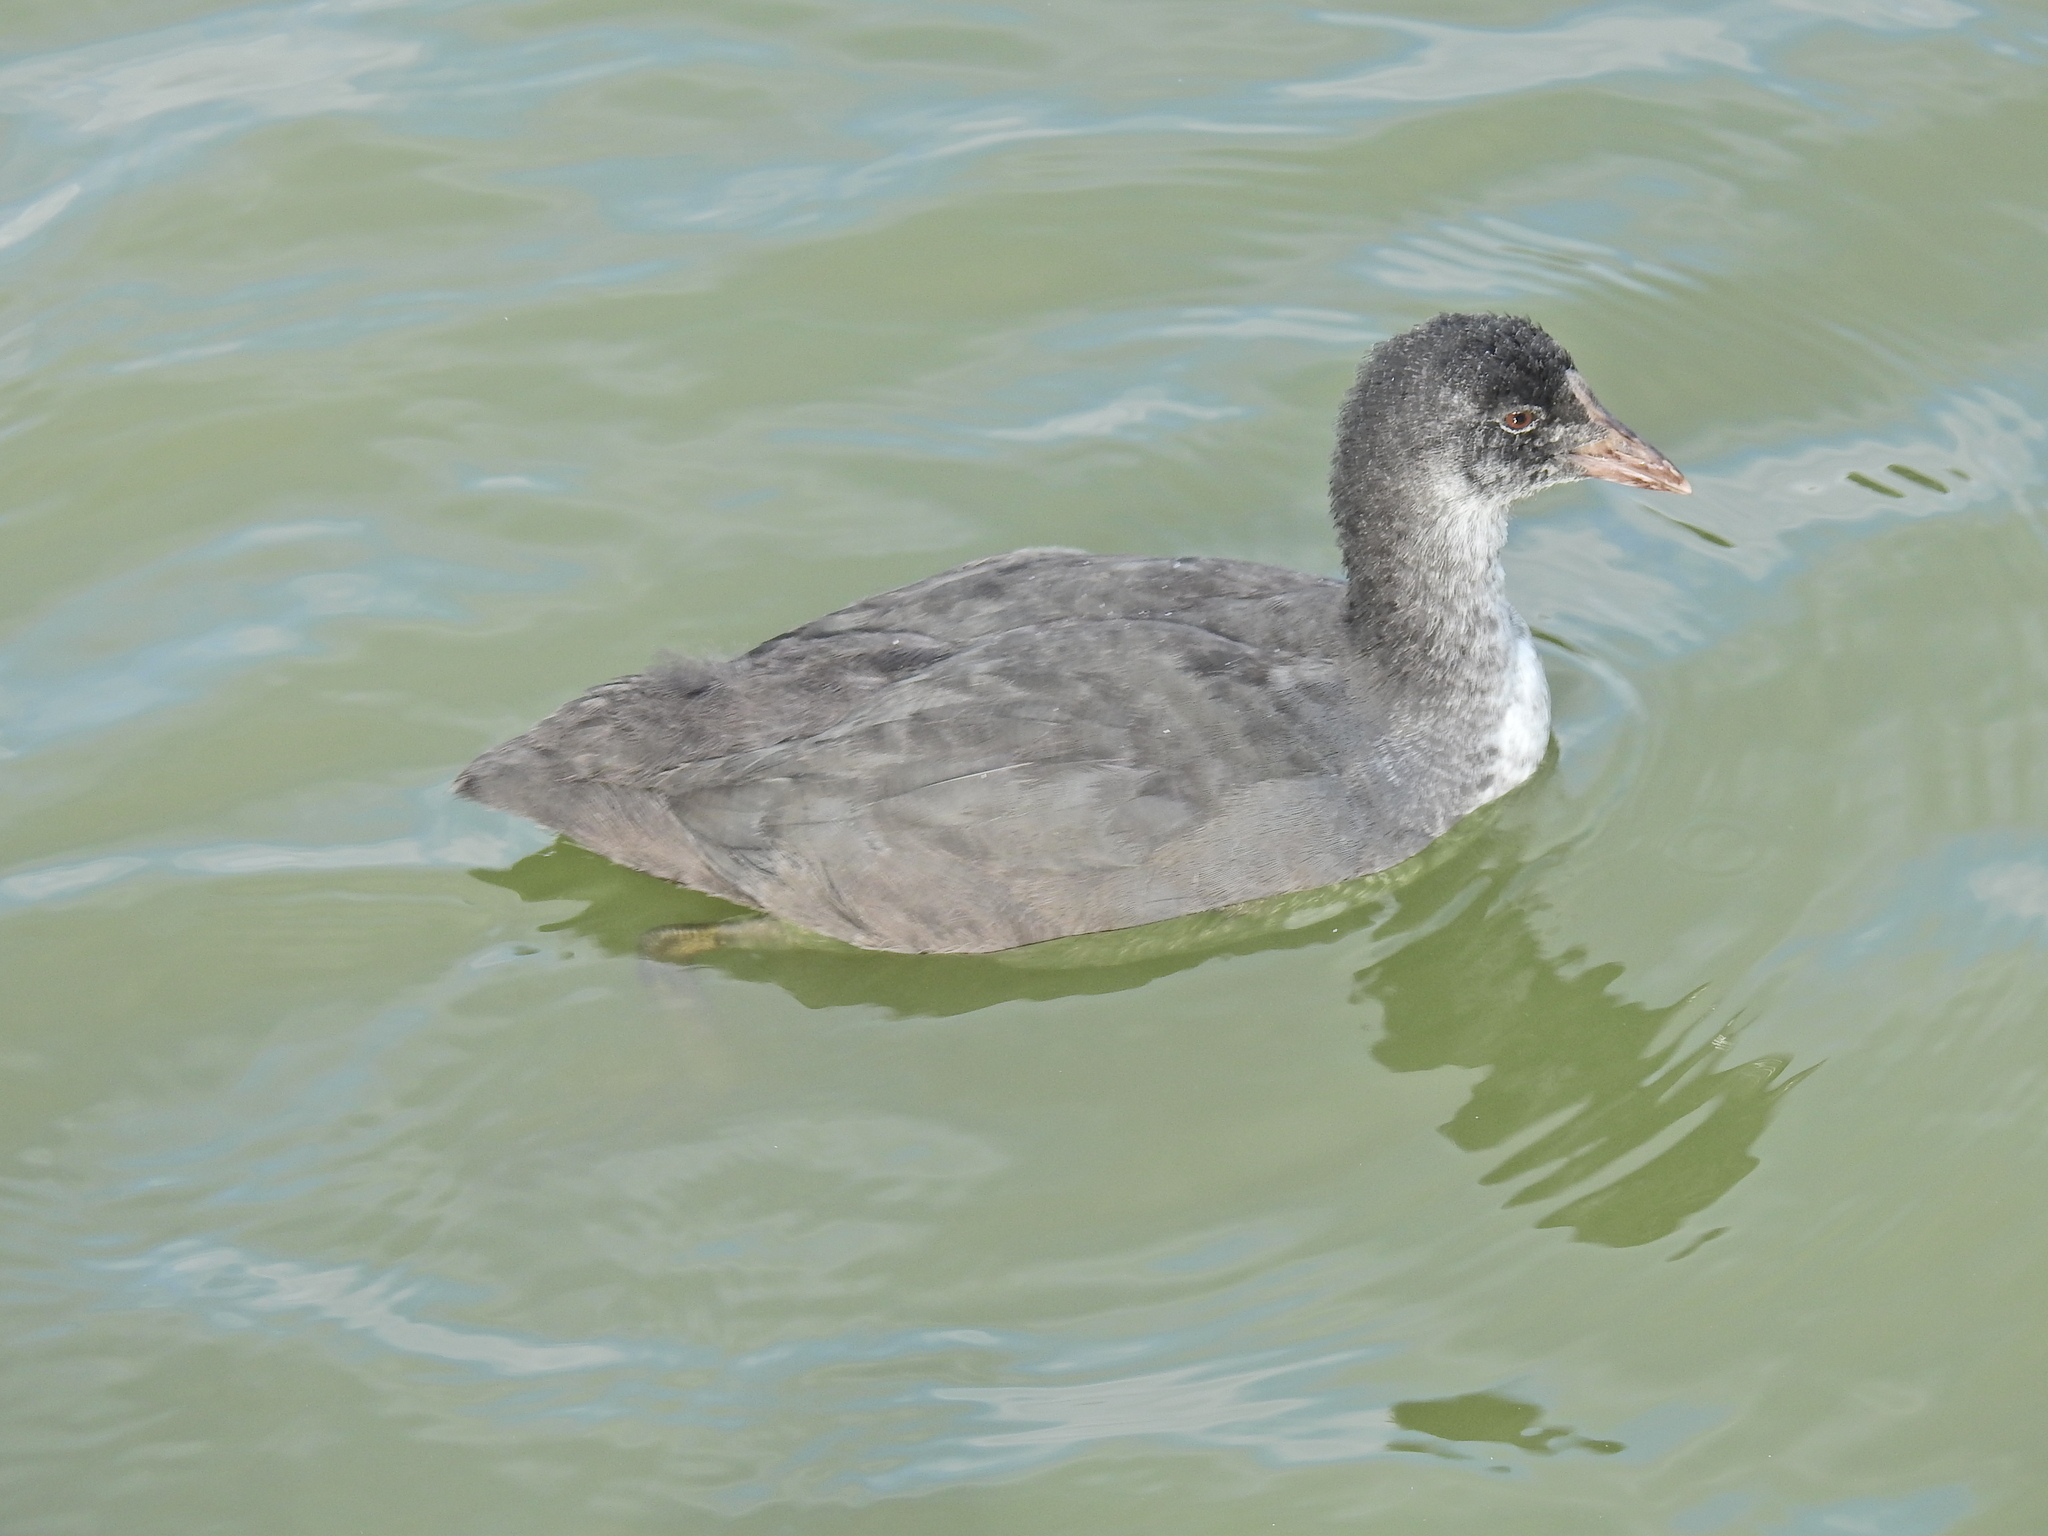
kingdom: Animalia
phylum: Chordata
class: Aves
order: Gruiformes
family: Rallidae
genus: Fulica
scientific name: Fulica atra
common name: Eurasian coot
